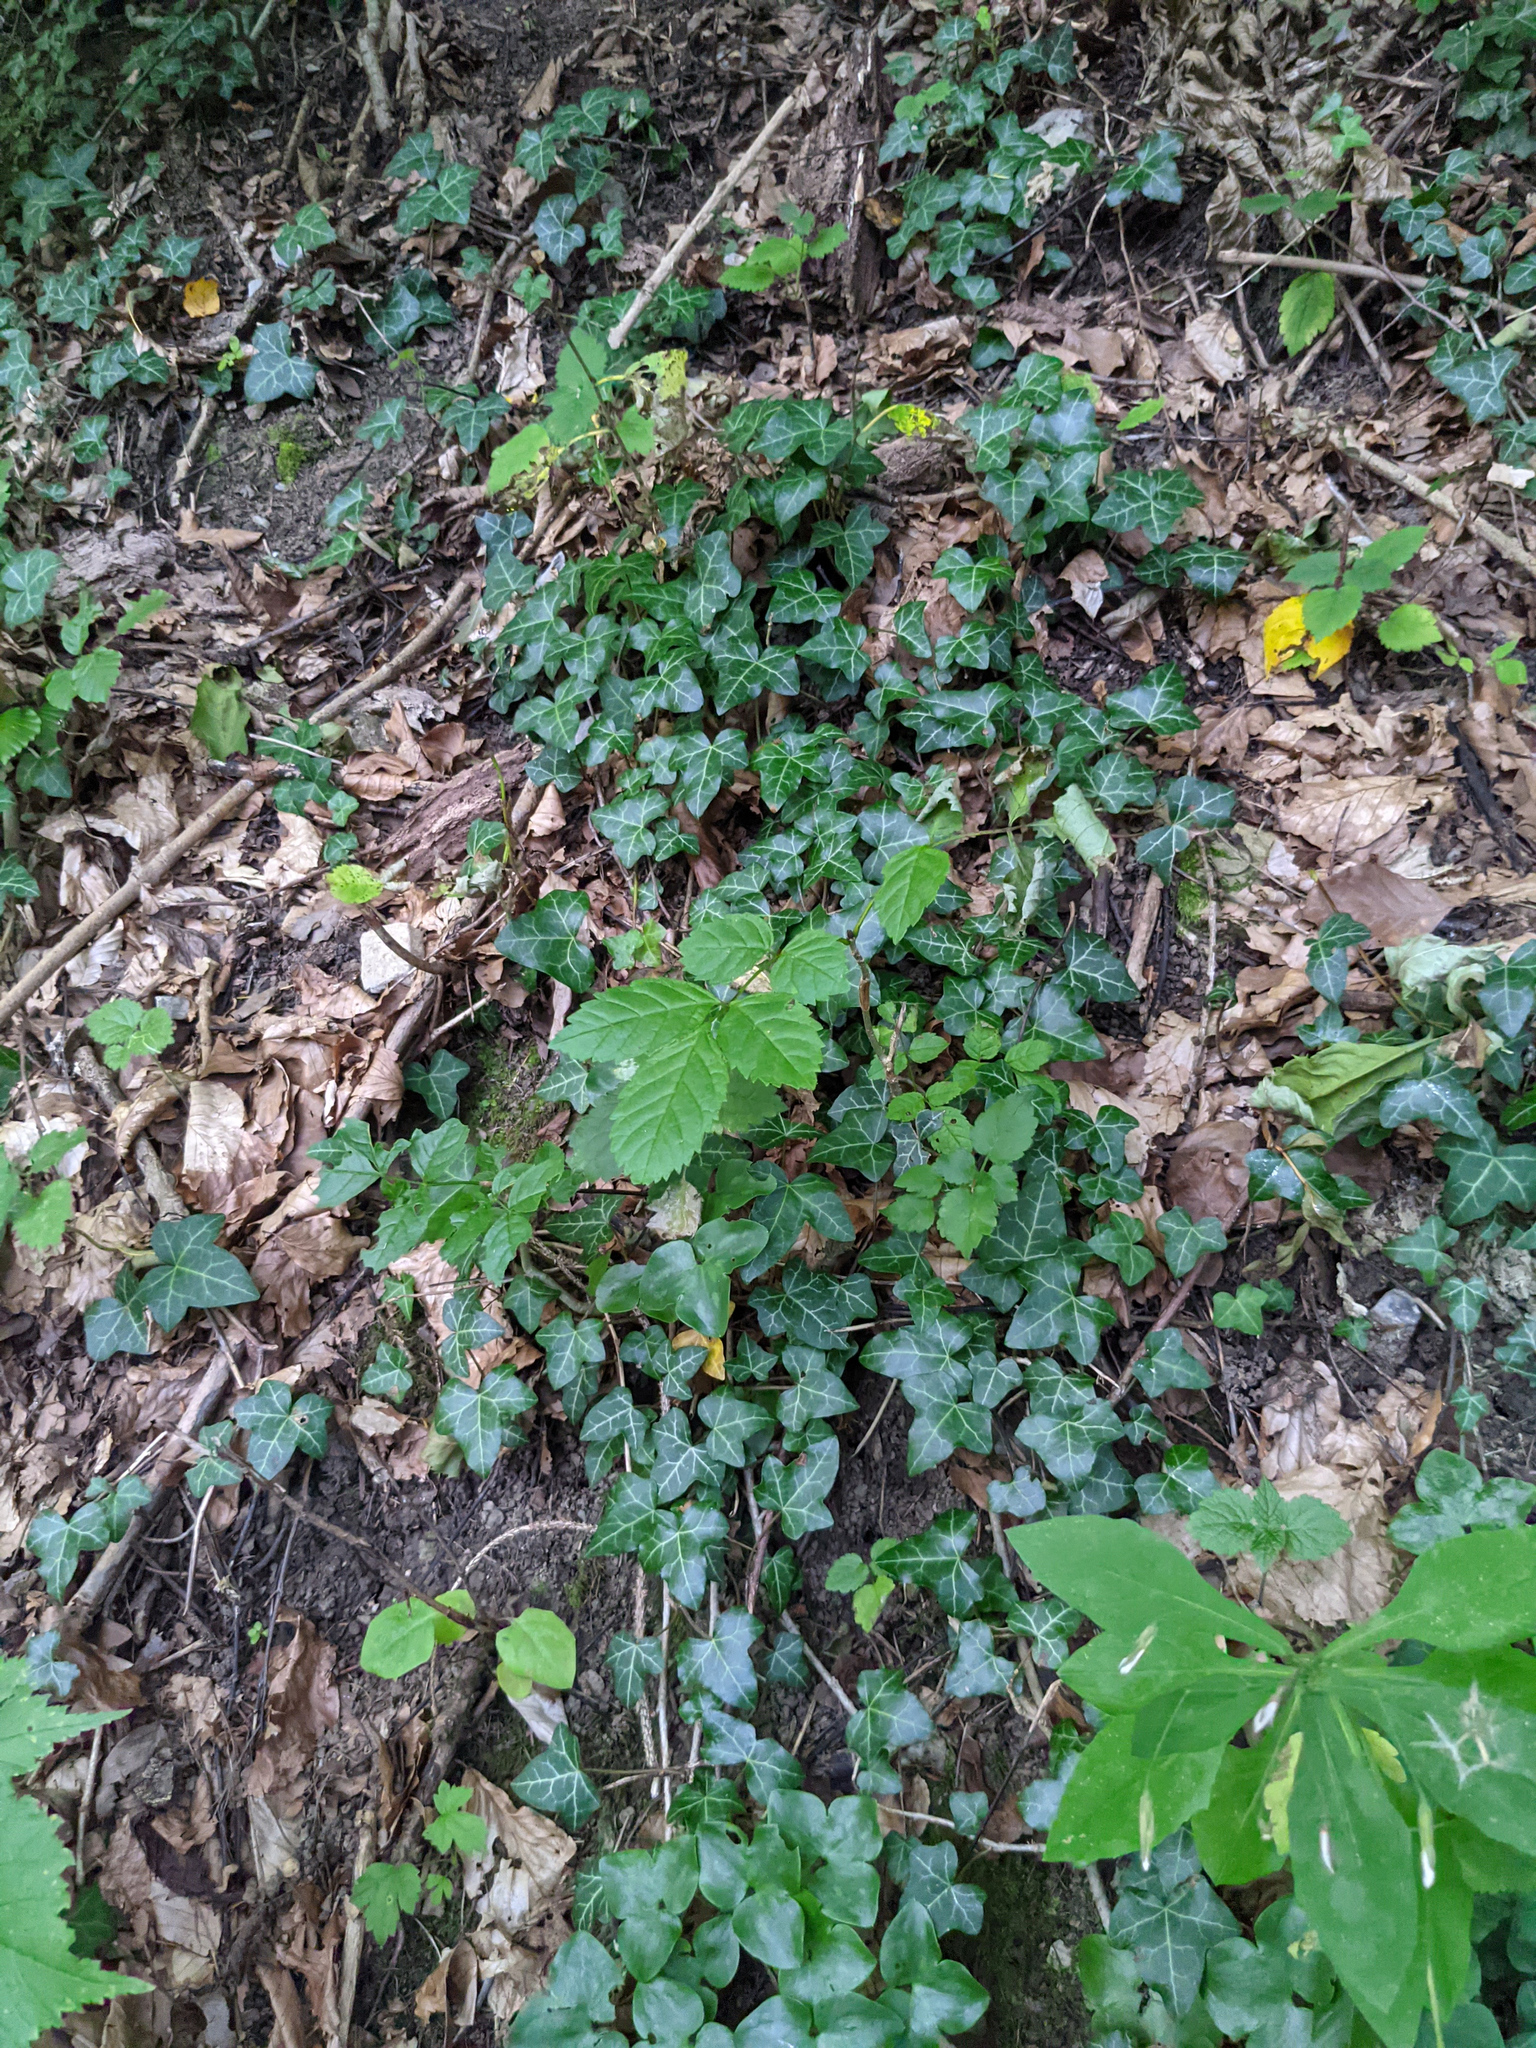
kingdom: Plantae
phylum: Tracheophyta
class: Magnoliopsida
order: Apiales
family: Araliaceae
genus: Hedera
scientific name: Hedera helix
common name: Ivy
